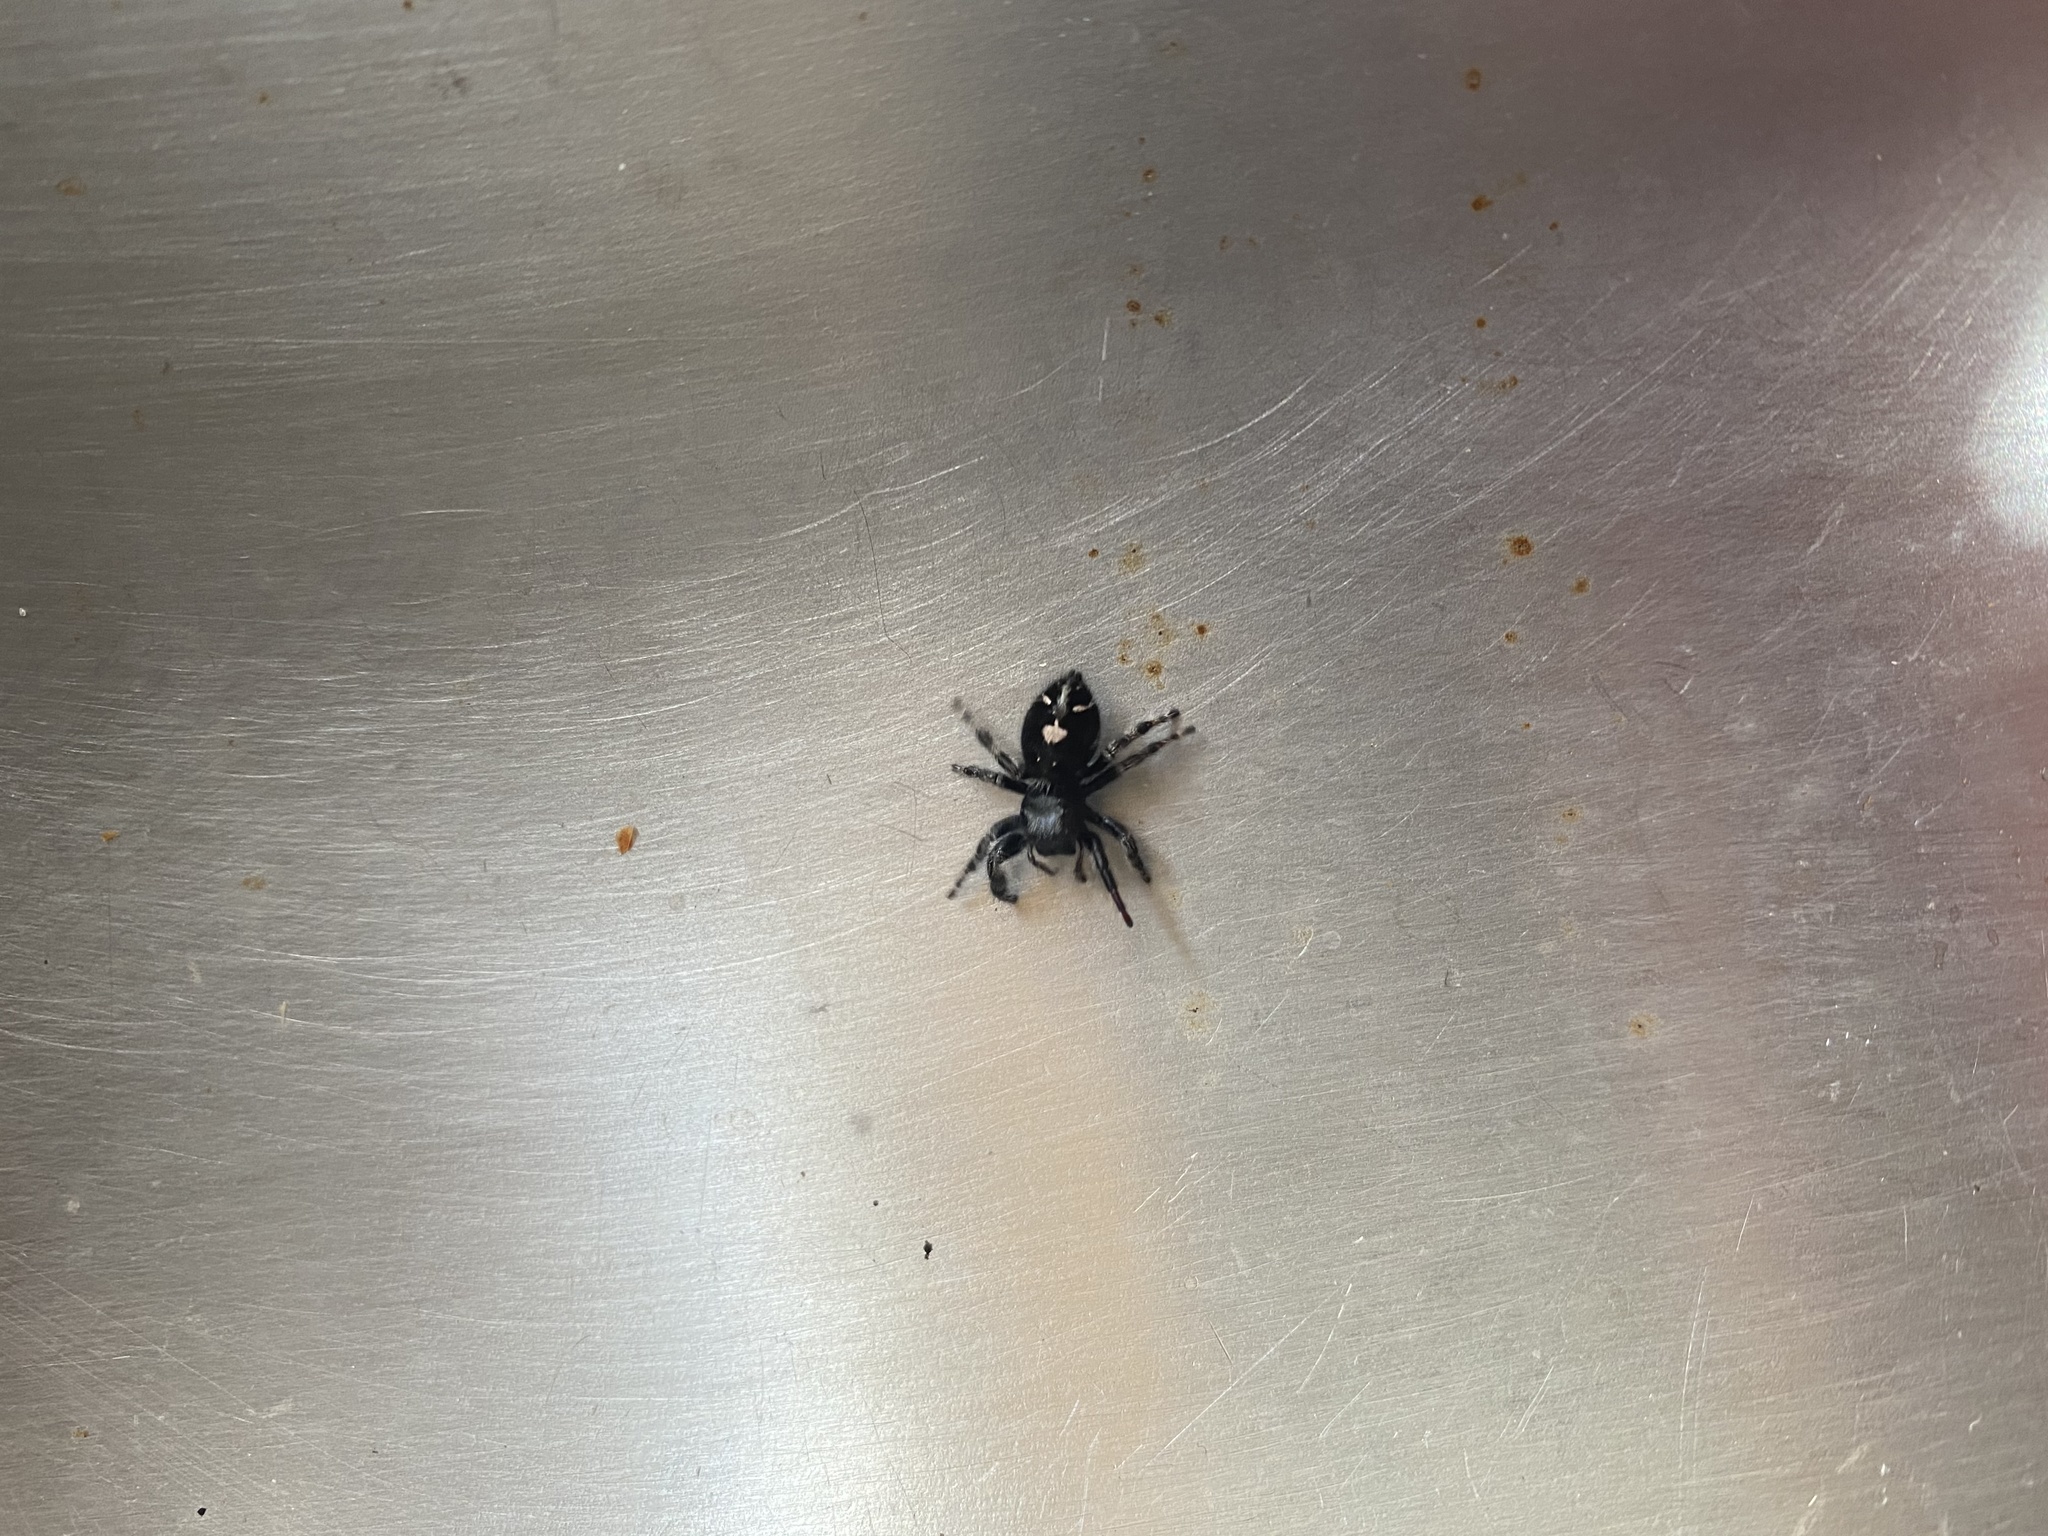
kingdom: Animalia
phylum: Arthropoda
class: Arachnida
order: Araneae
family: Salticidae
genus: Phidippus
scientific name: Phidippus audax
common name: Bold jumper
